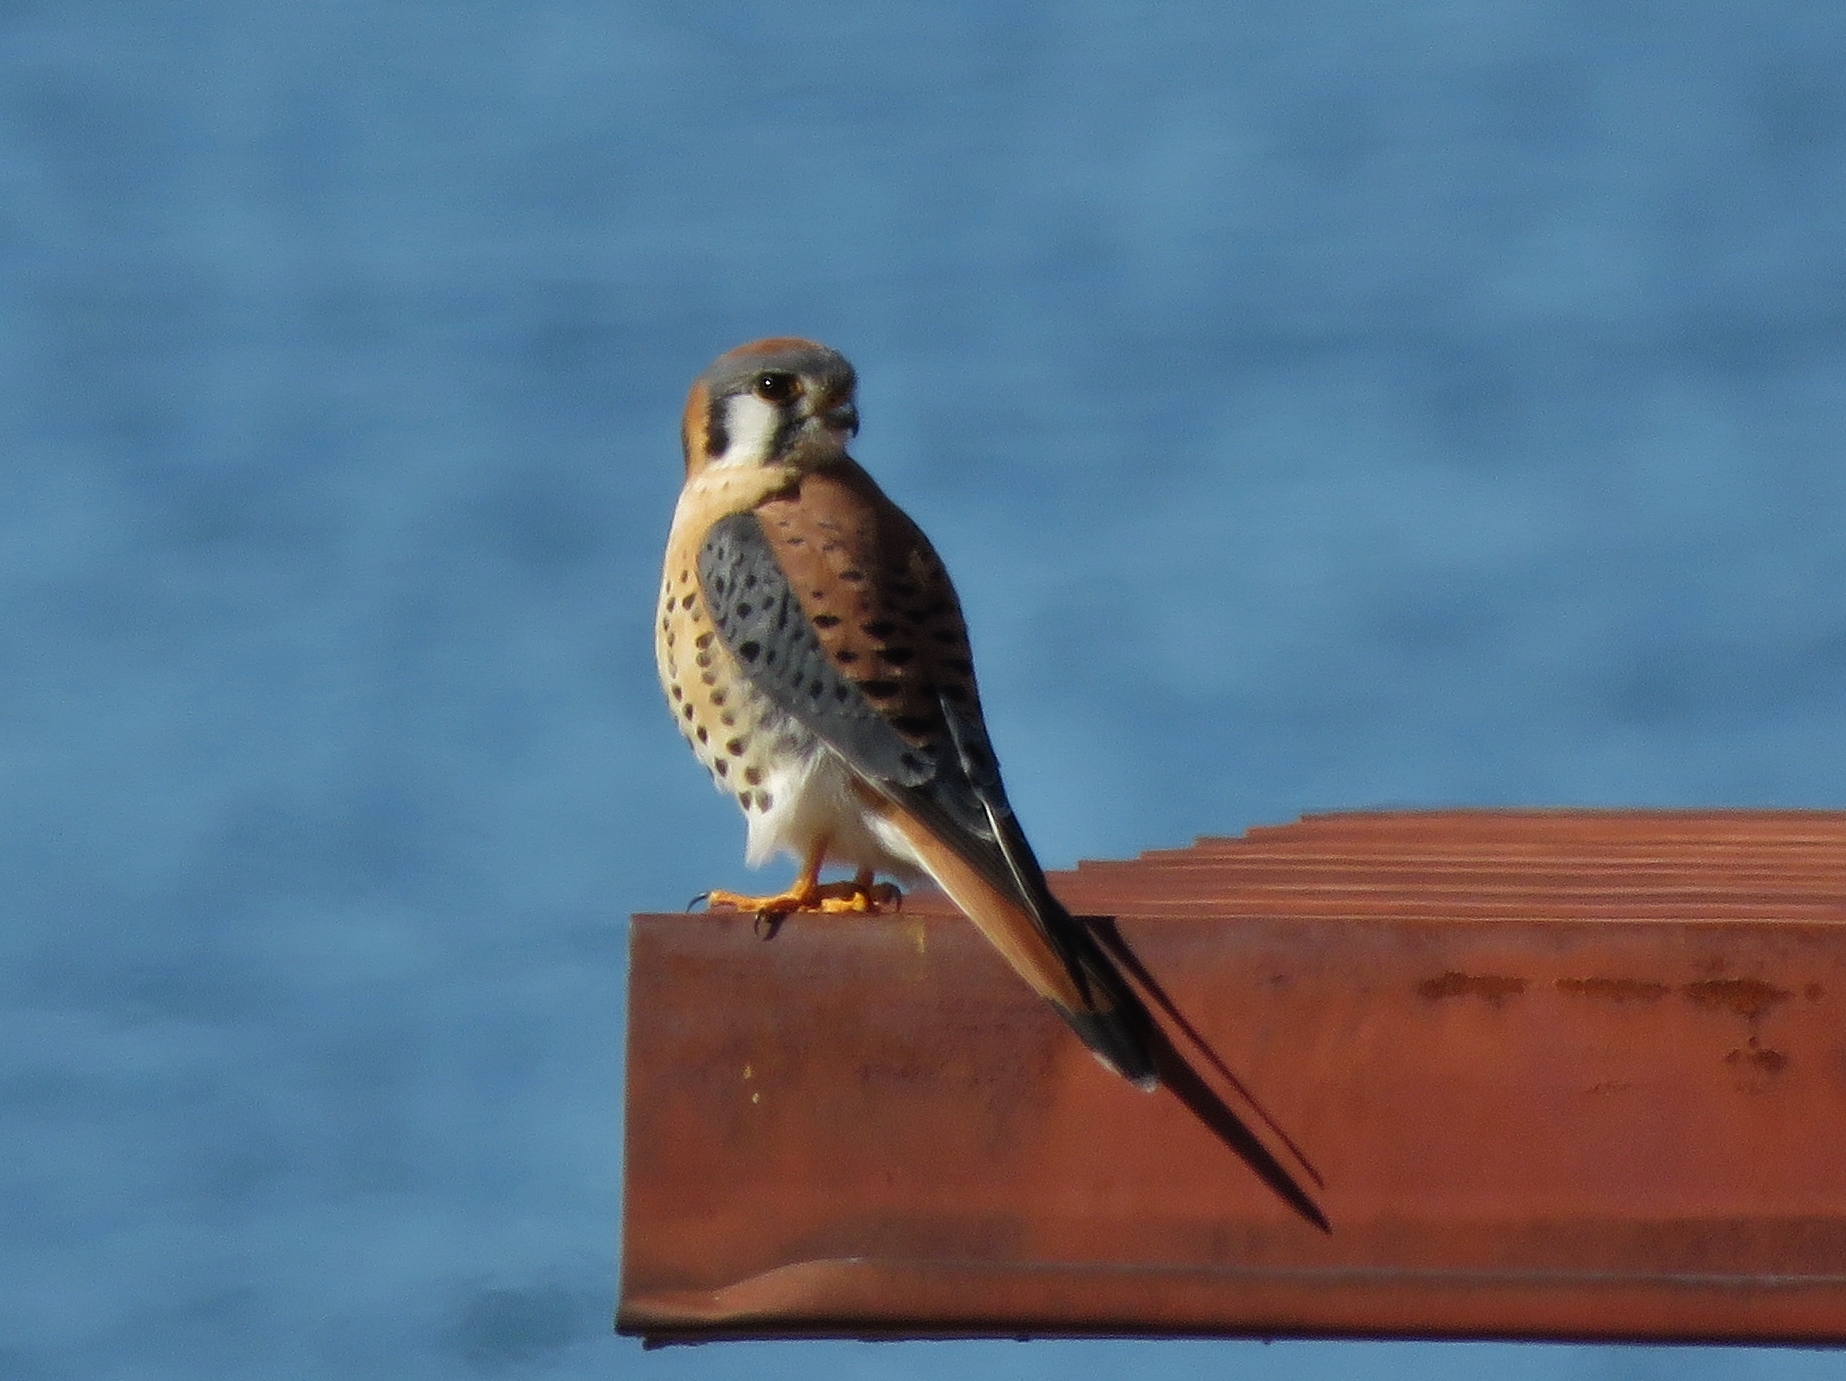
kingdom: Animalia
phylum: Chordata
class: Aves
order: Falconiformes
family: Falconidae
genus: Falco
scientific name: Falco sparverius
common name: American kestrel
